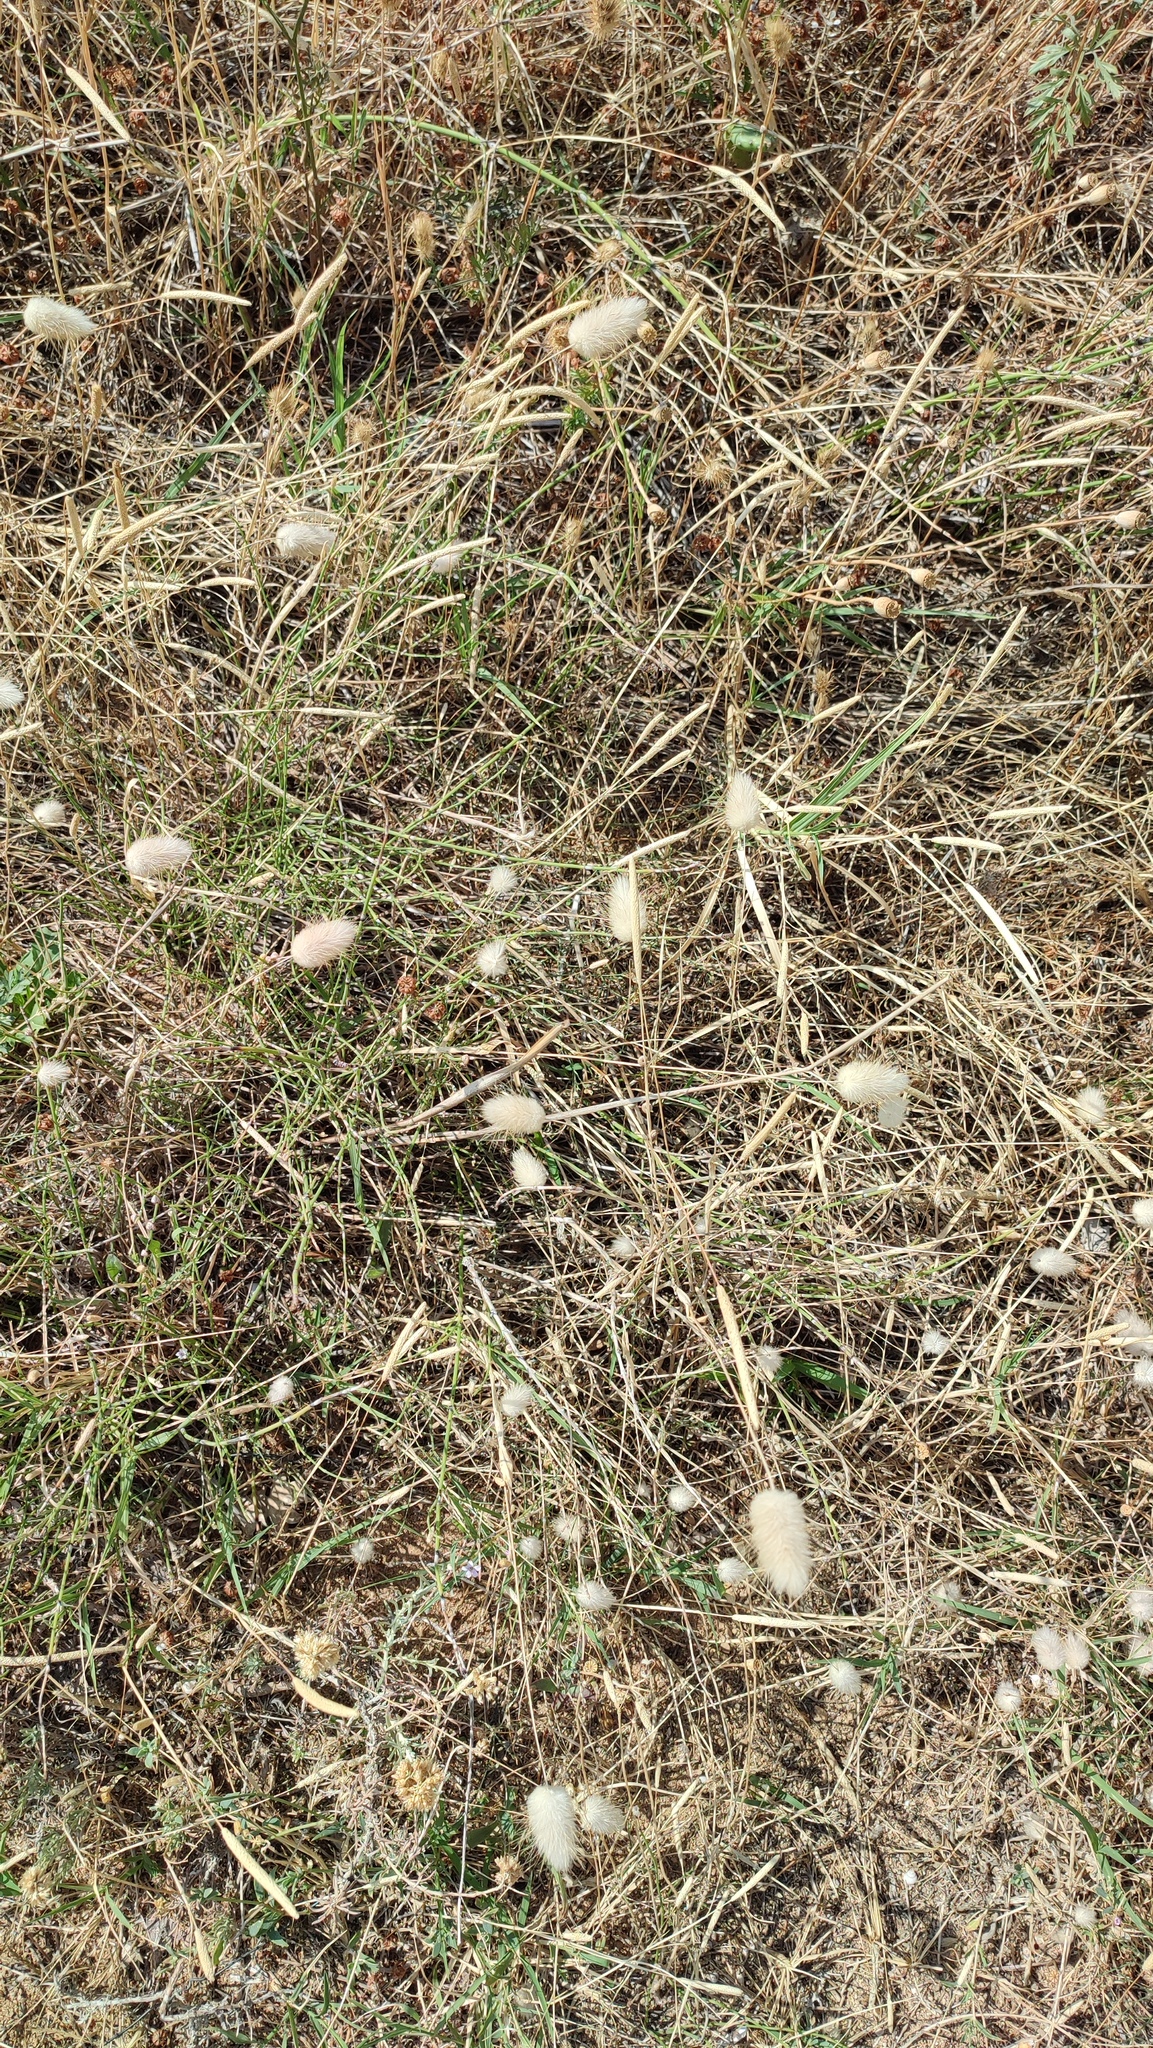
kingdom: Plantae
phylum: Tracheophyta
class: Liliopsida
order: Poales
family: Poaceae
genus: Lagurus
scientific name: Lagurus ovatus
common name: Hare's-tail
